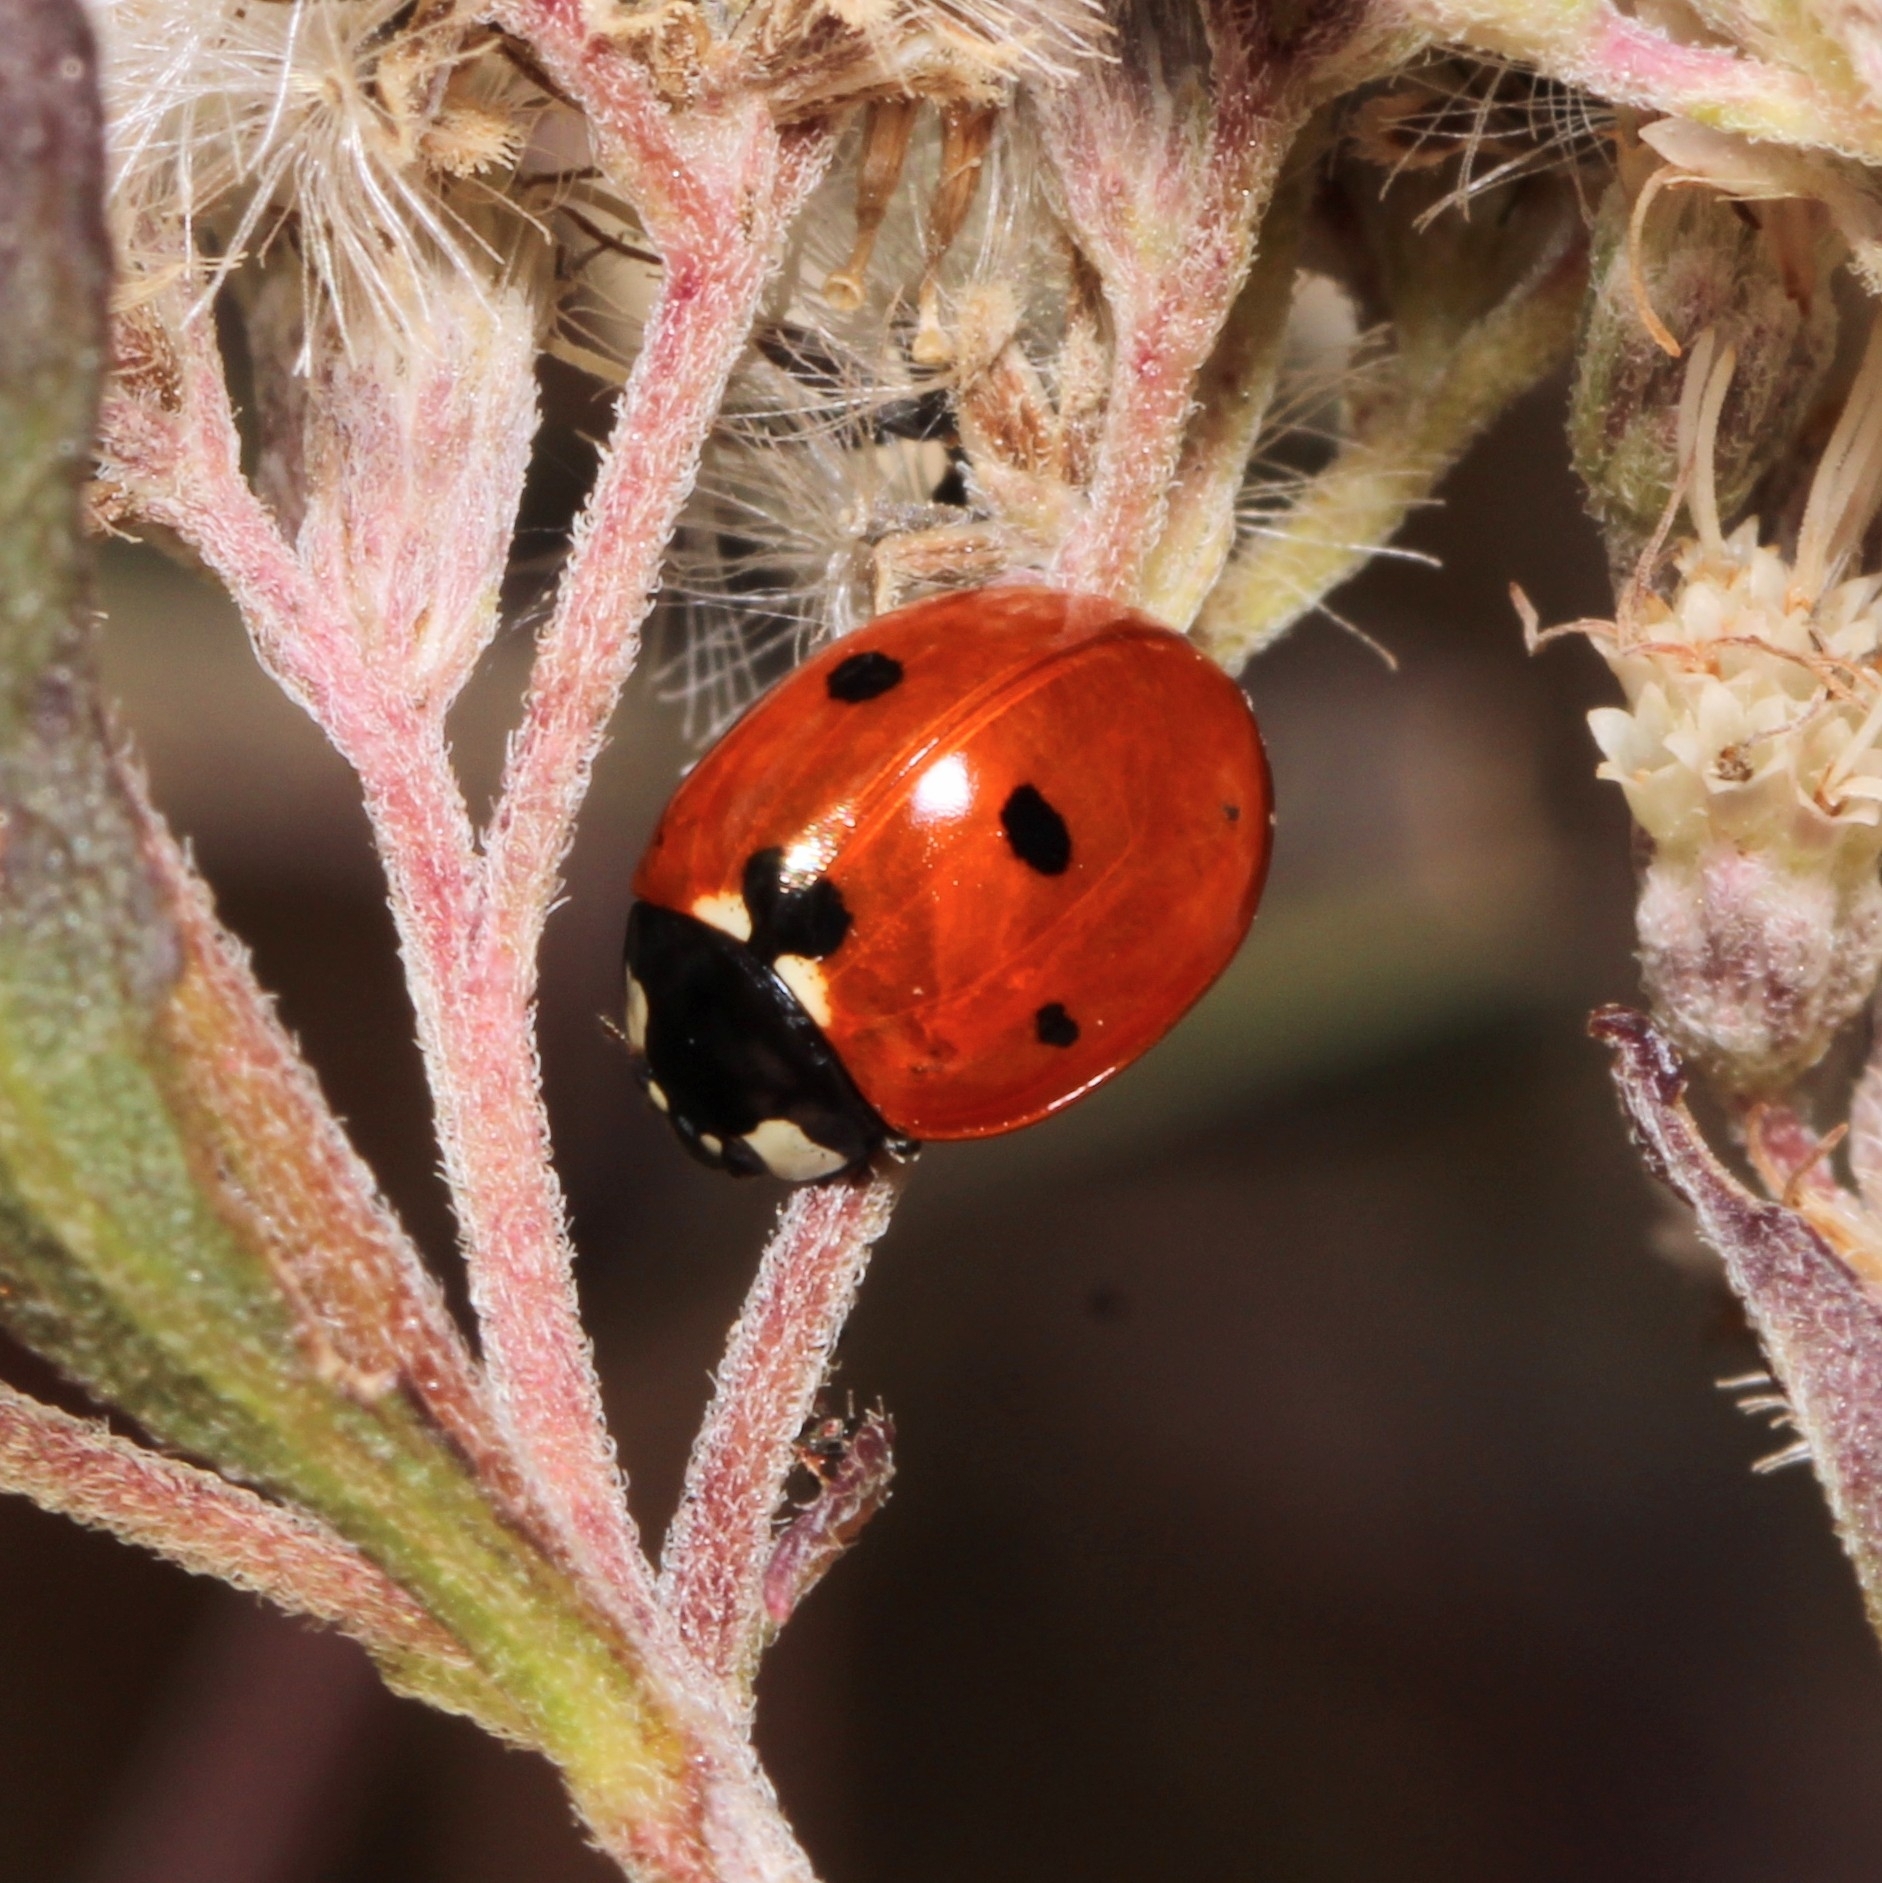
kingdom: Animalia
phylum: Arthropoda
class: Insecta
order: Coleoptera
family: Coccinellidae
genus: Coccinella
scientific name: Coccinella septempunctata
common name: Sevenspotted lady beetle
